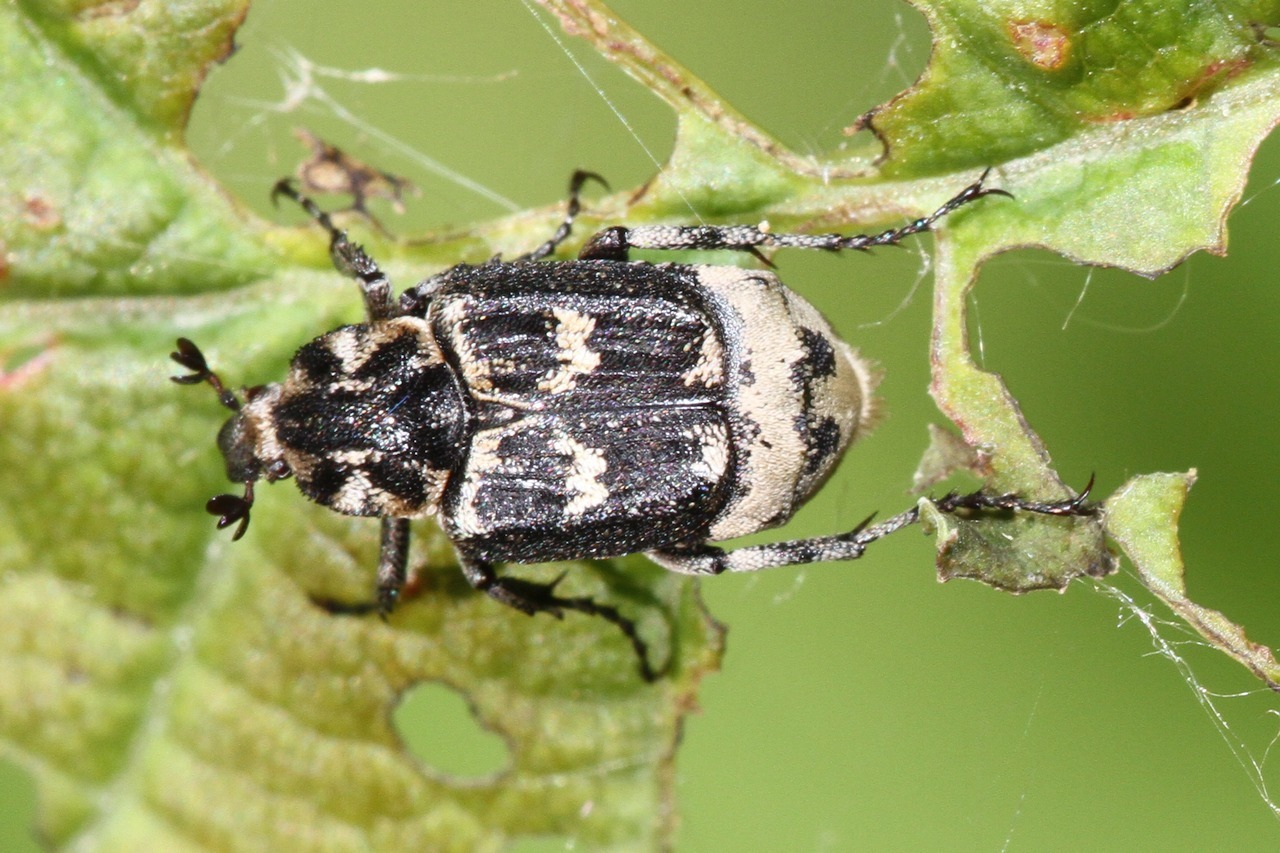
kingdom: Animalia
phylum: Arthropoda
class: Insecta
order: Coleoptera
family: Scarabaeidae
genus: Valgus
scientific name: Valgus hemipterus
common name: Bug flower chafer
